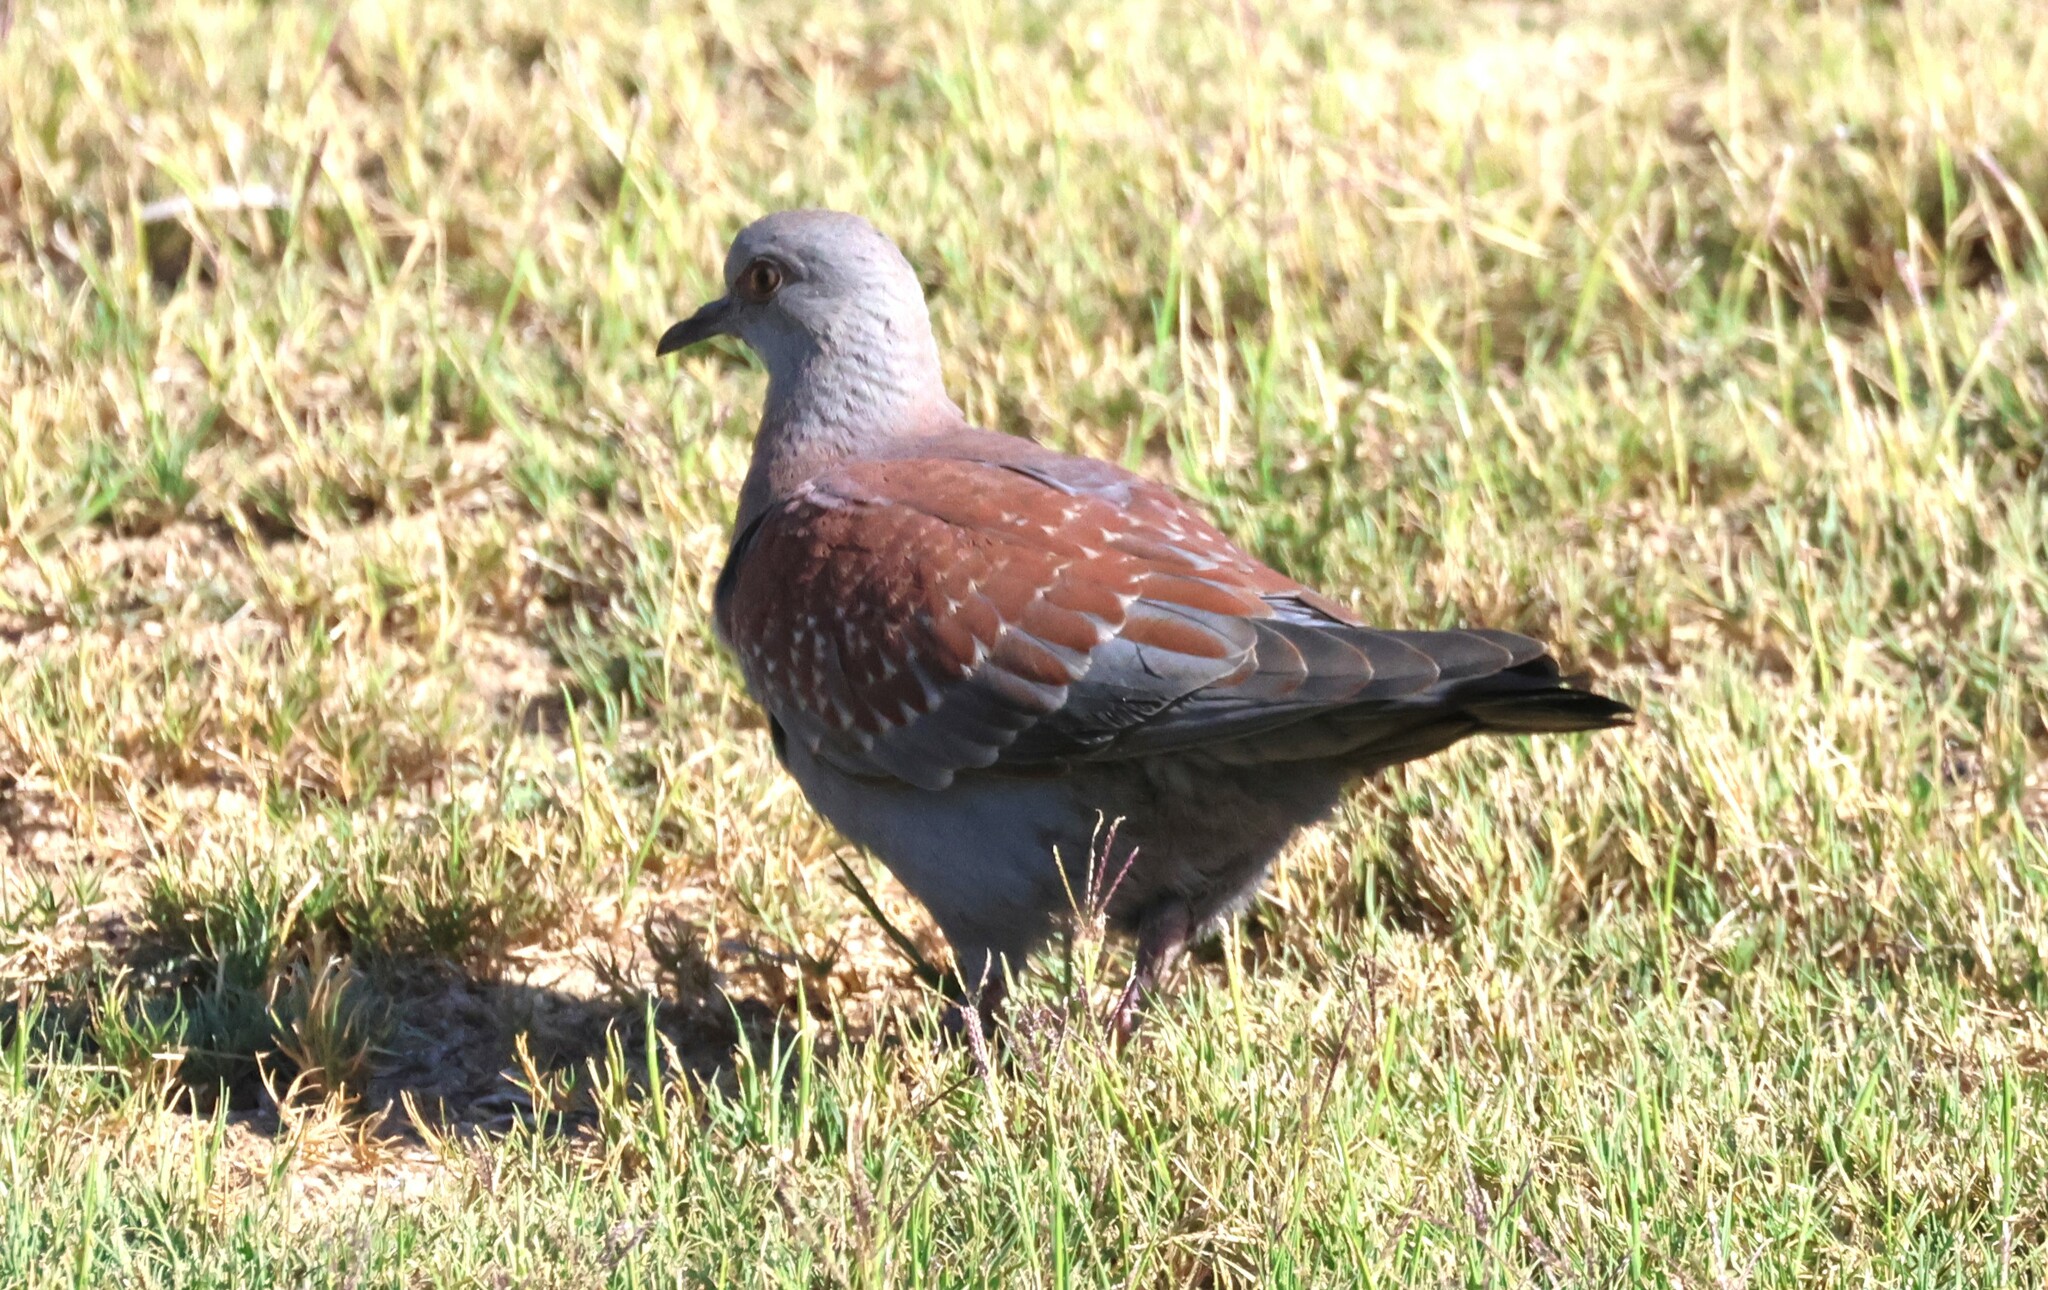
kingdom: Animalia
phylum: Chordata
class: Aves
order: Columbiformes
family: Columbidae
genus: Columba
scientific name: Columba guinea
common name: Speckled pigeon
